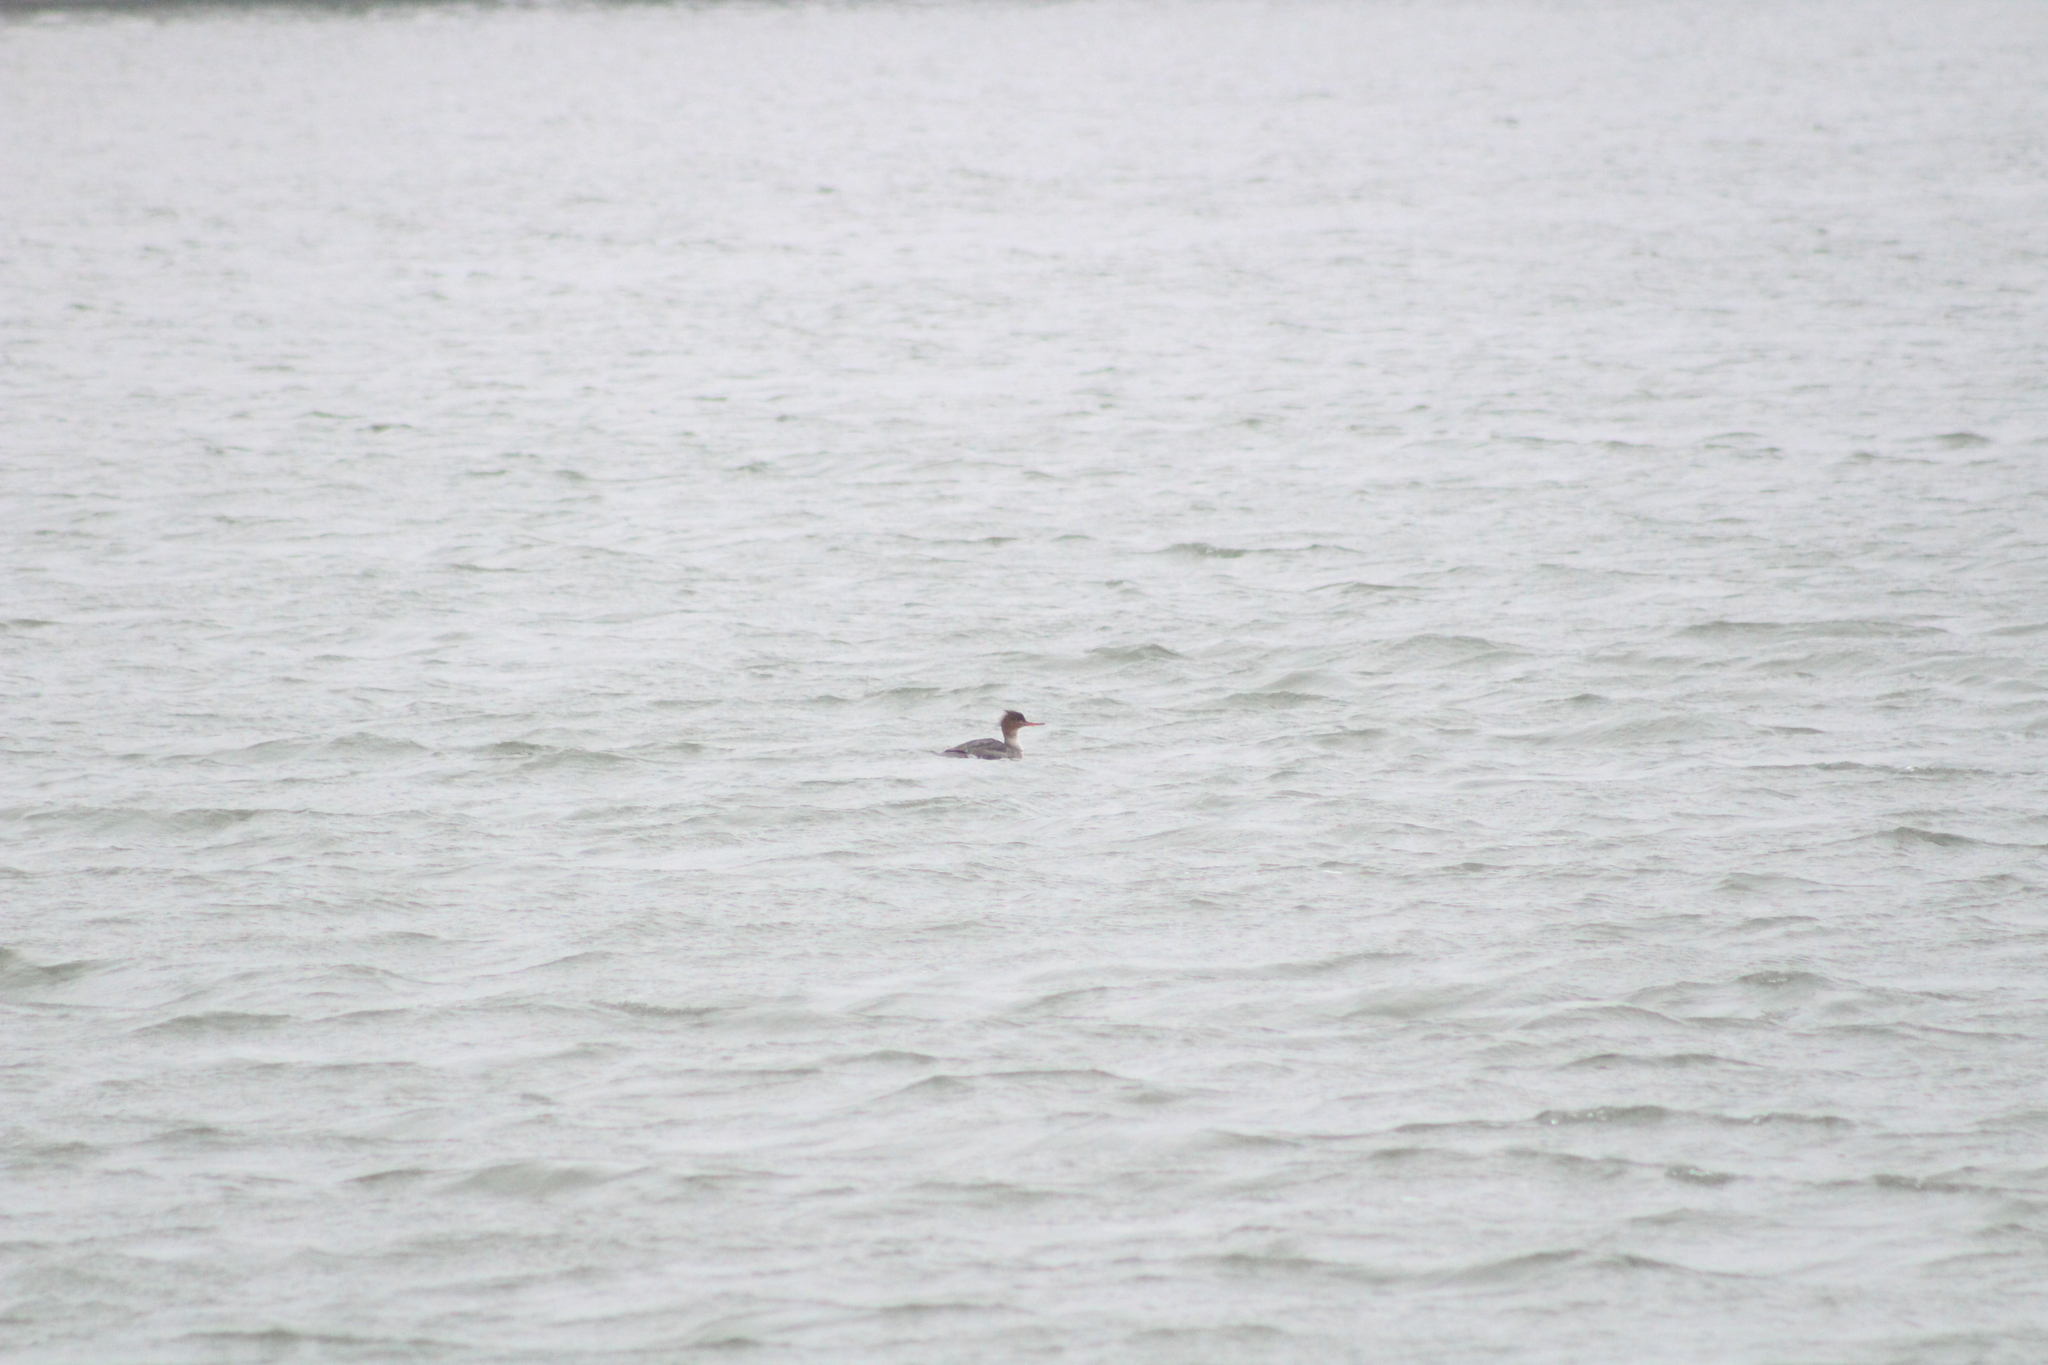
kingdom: Animalia
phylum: Chordata
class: Aves
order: Anseriformes
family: Anatidae
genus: Mergus
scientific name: Mergus serrator
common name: Red-breasted merganser
